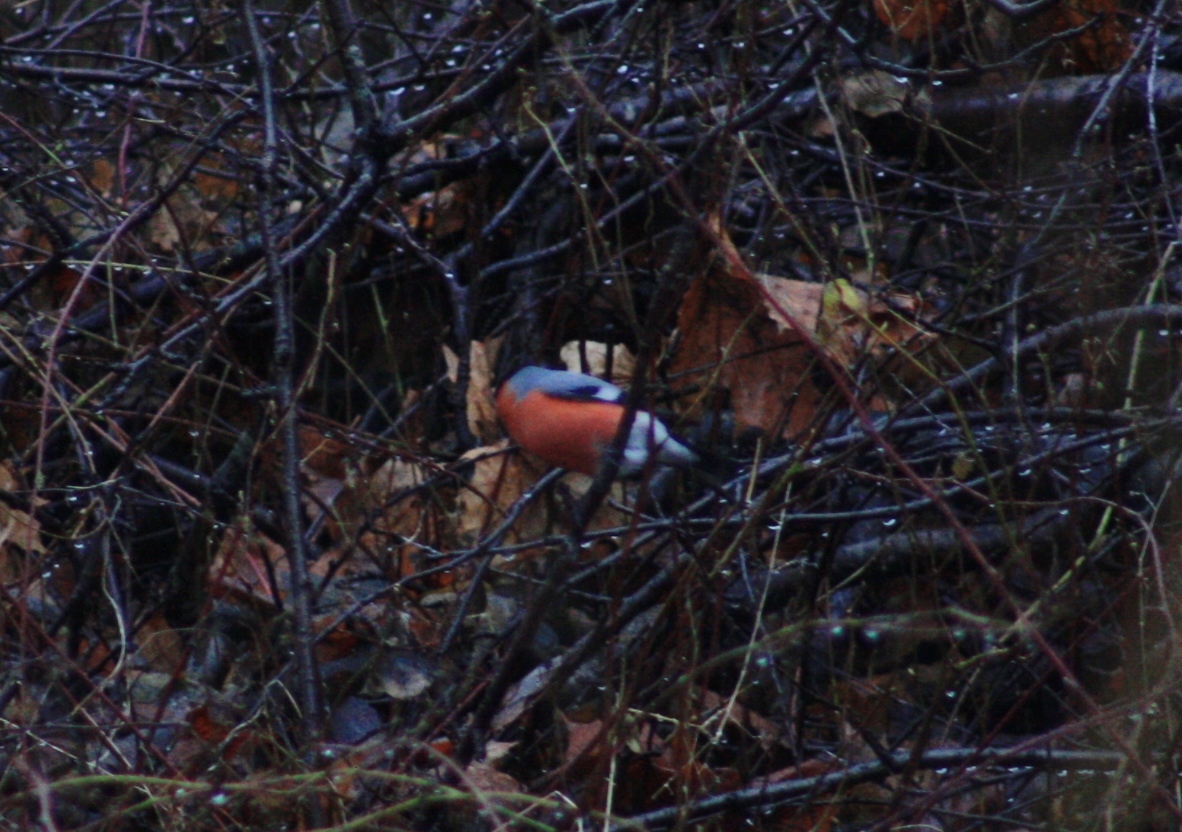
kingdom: Animalia
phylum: Chordata
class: Aves
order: Passeriformes
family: Fringillidae
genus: Pyrrhula
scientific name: Pyrrhula pyrrhula
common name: Eurasian bullfinch
